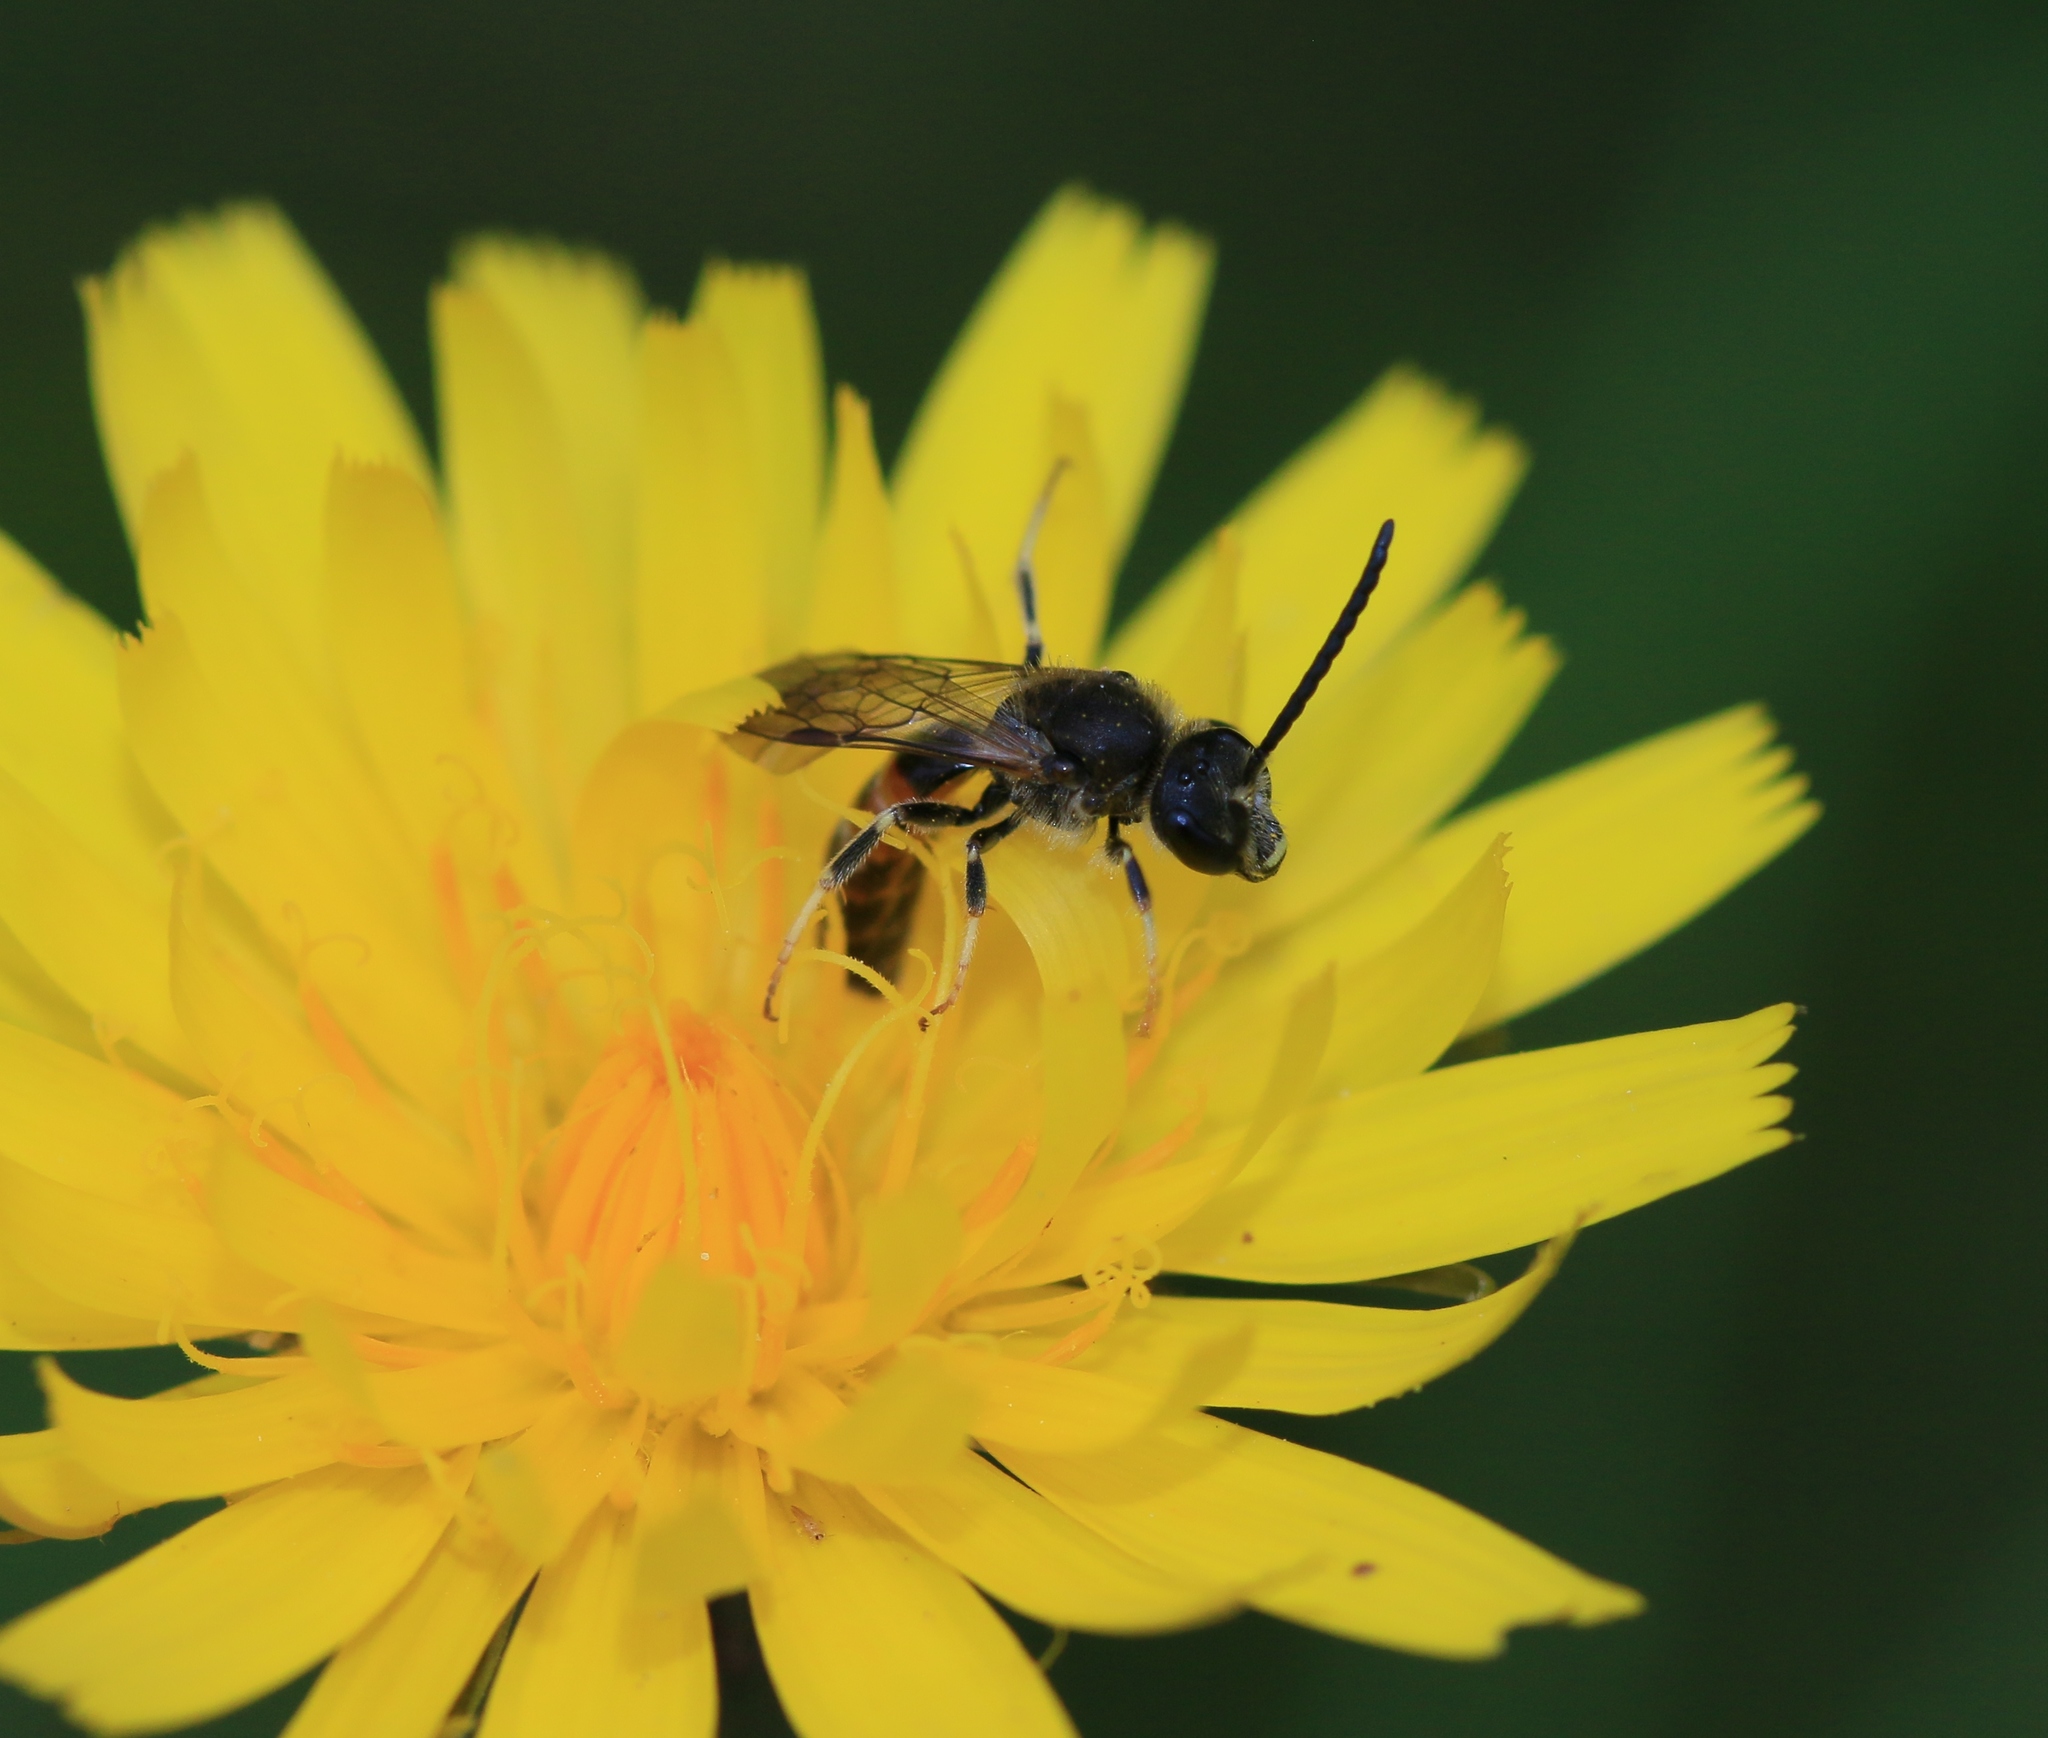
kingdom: Animalia
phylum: Arthropoda
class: Insecta
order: Hymenoptera
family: Halictidae
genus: Lasioglossum
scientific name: Lasioglossum calceatum
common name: Common furrow bee
